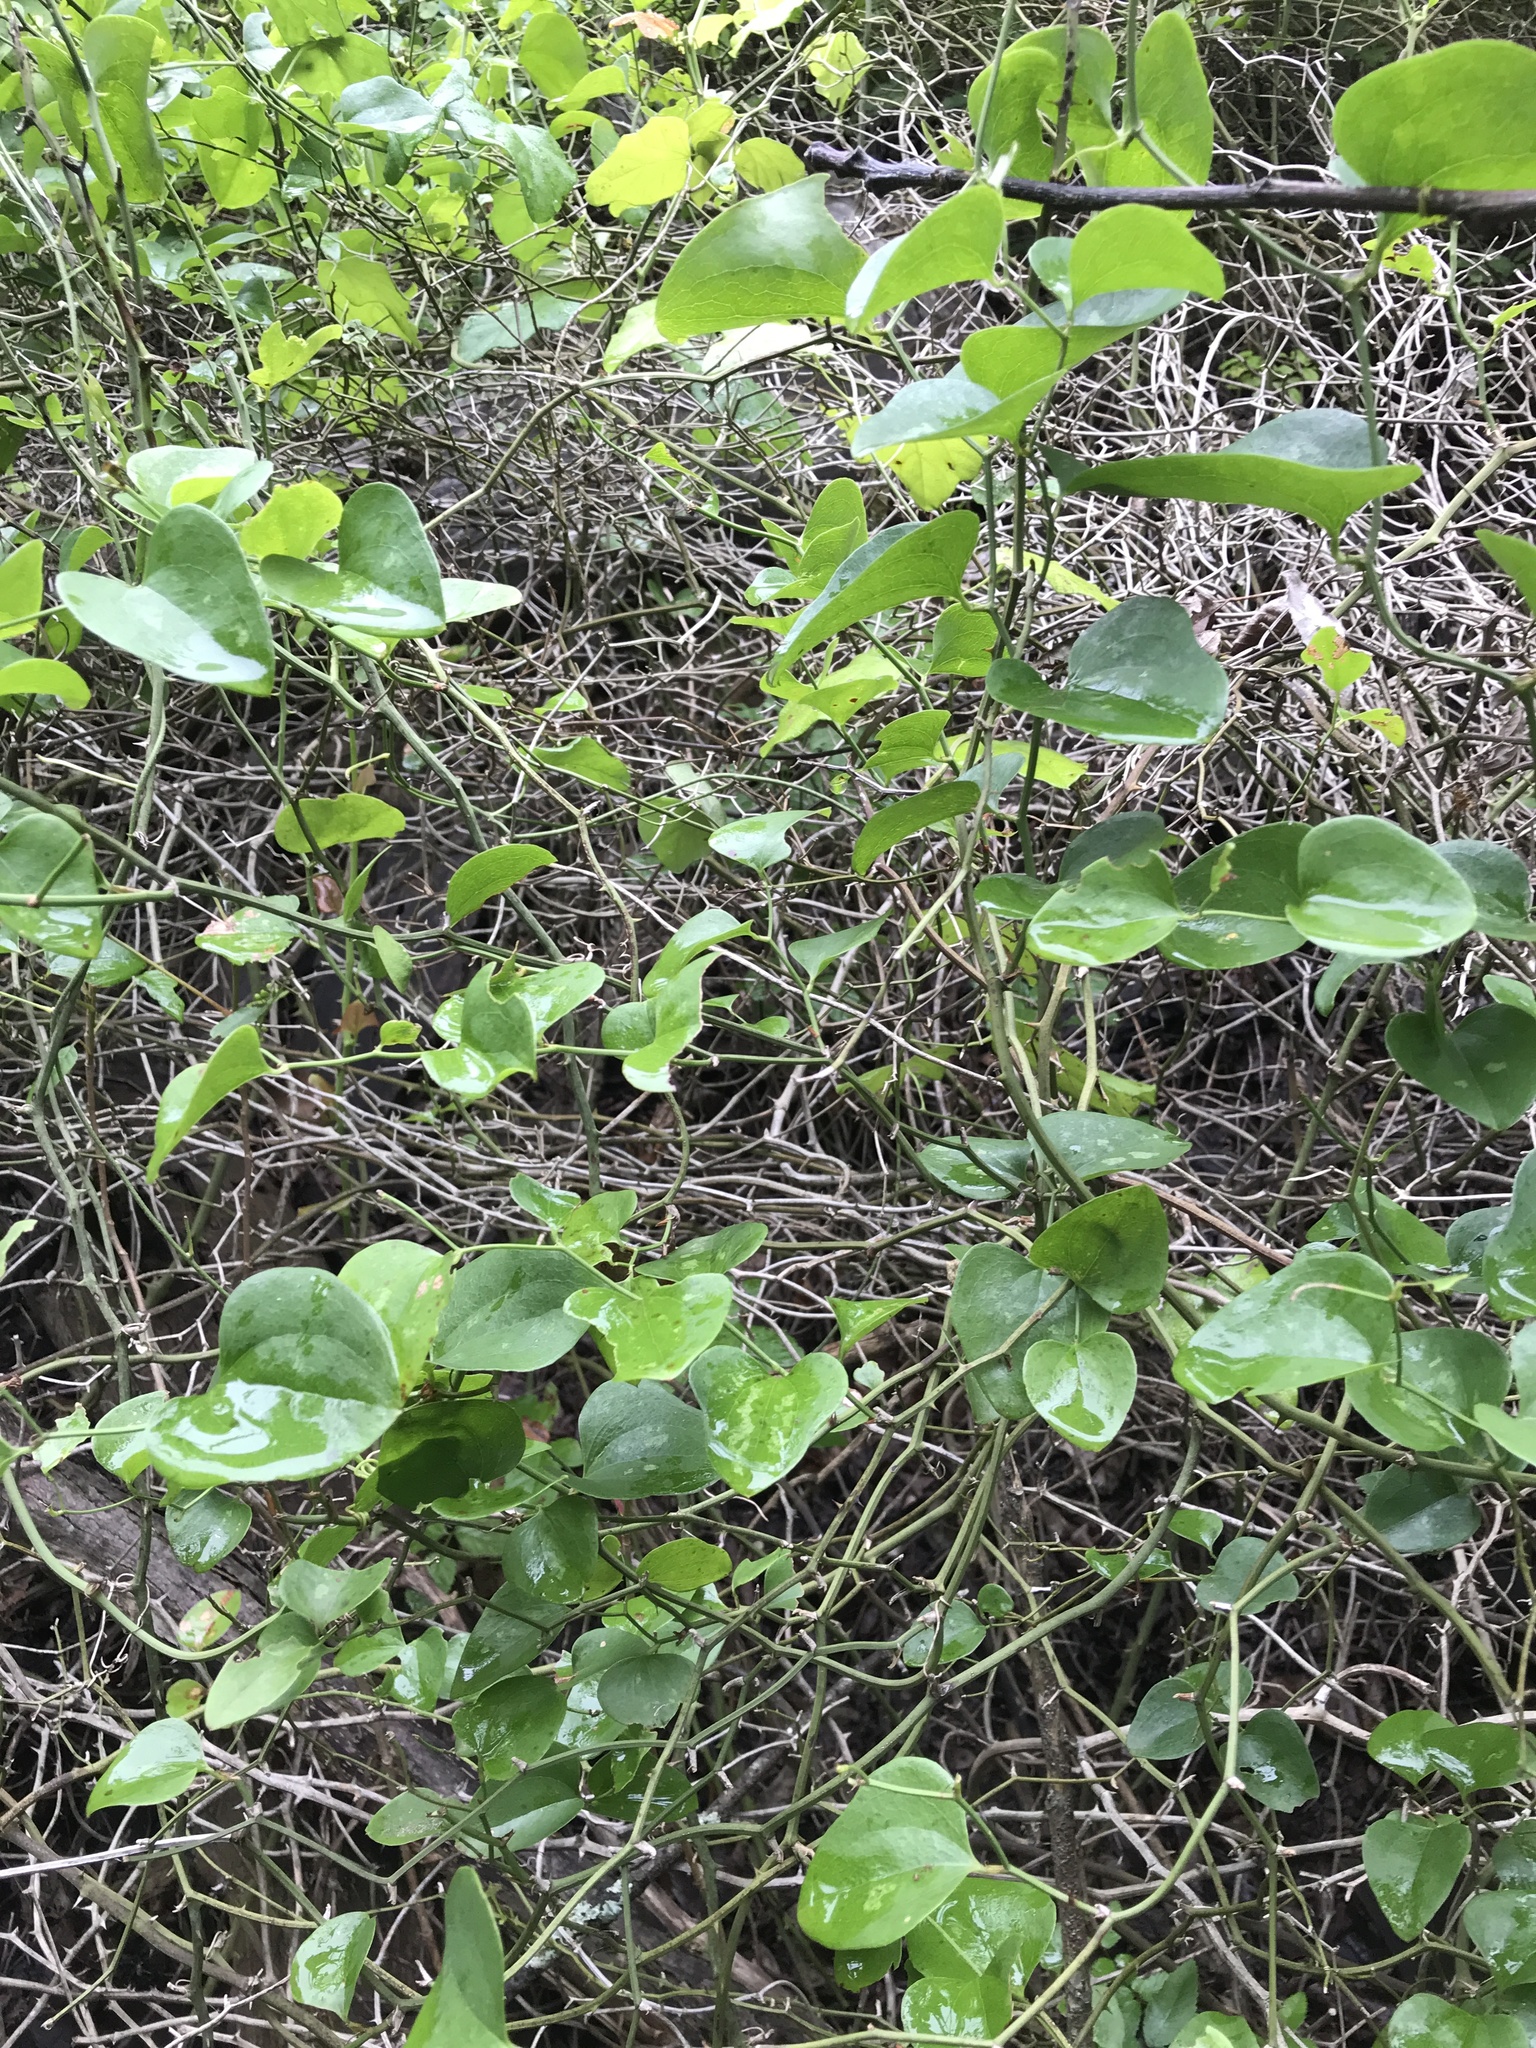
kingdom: Plantae
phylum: Tracheophyta
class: Liliopsida
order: Liliales
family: Smilacaceae
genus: Smilax
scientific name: Smilax bona-nox
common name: Catbrier
